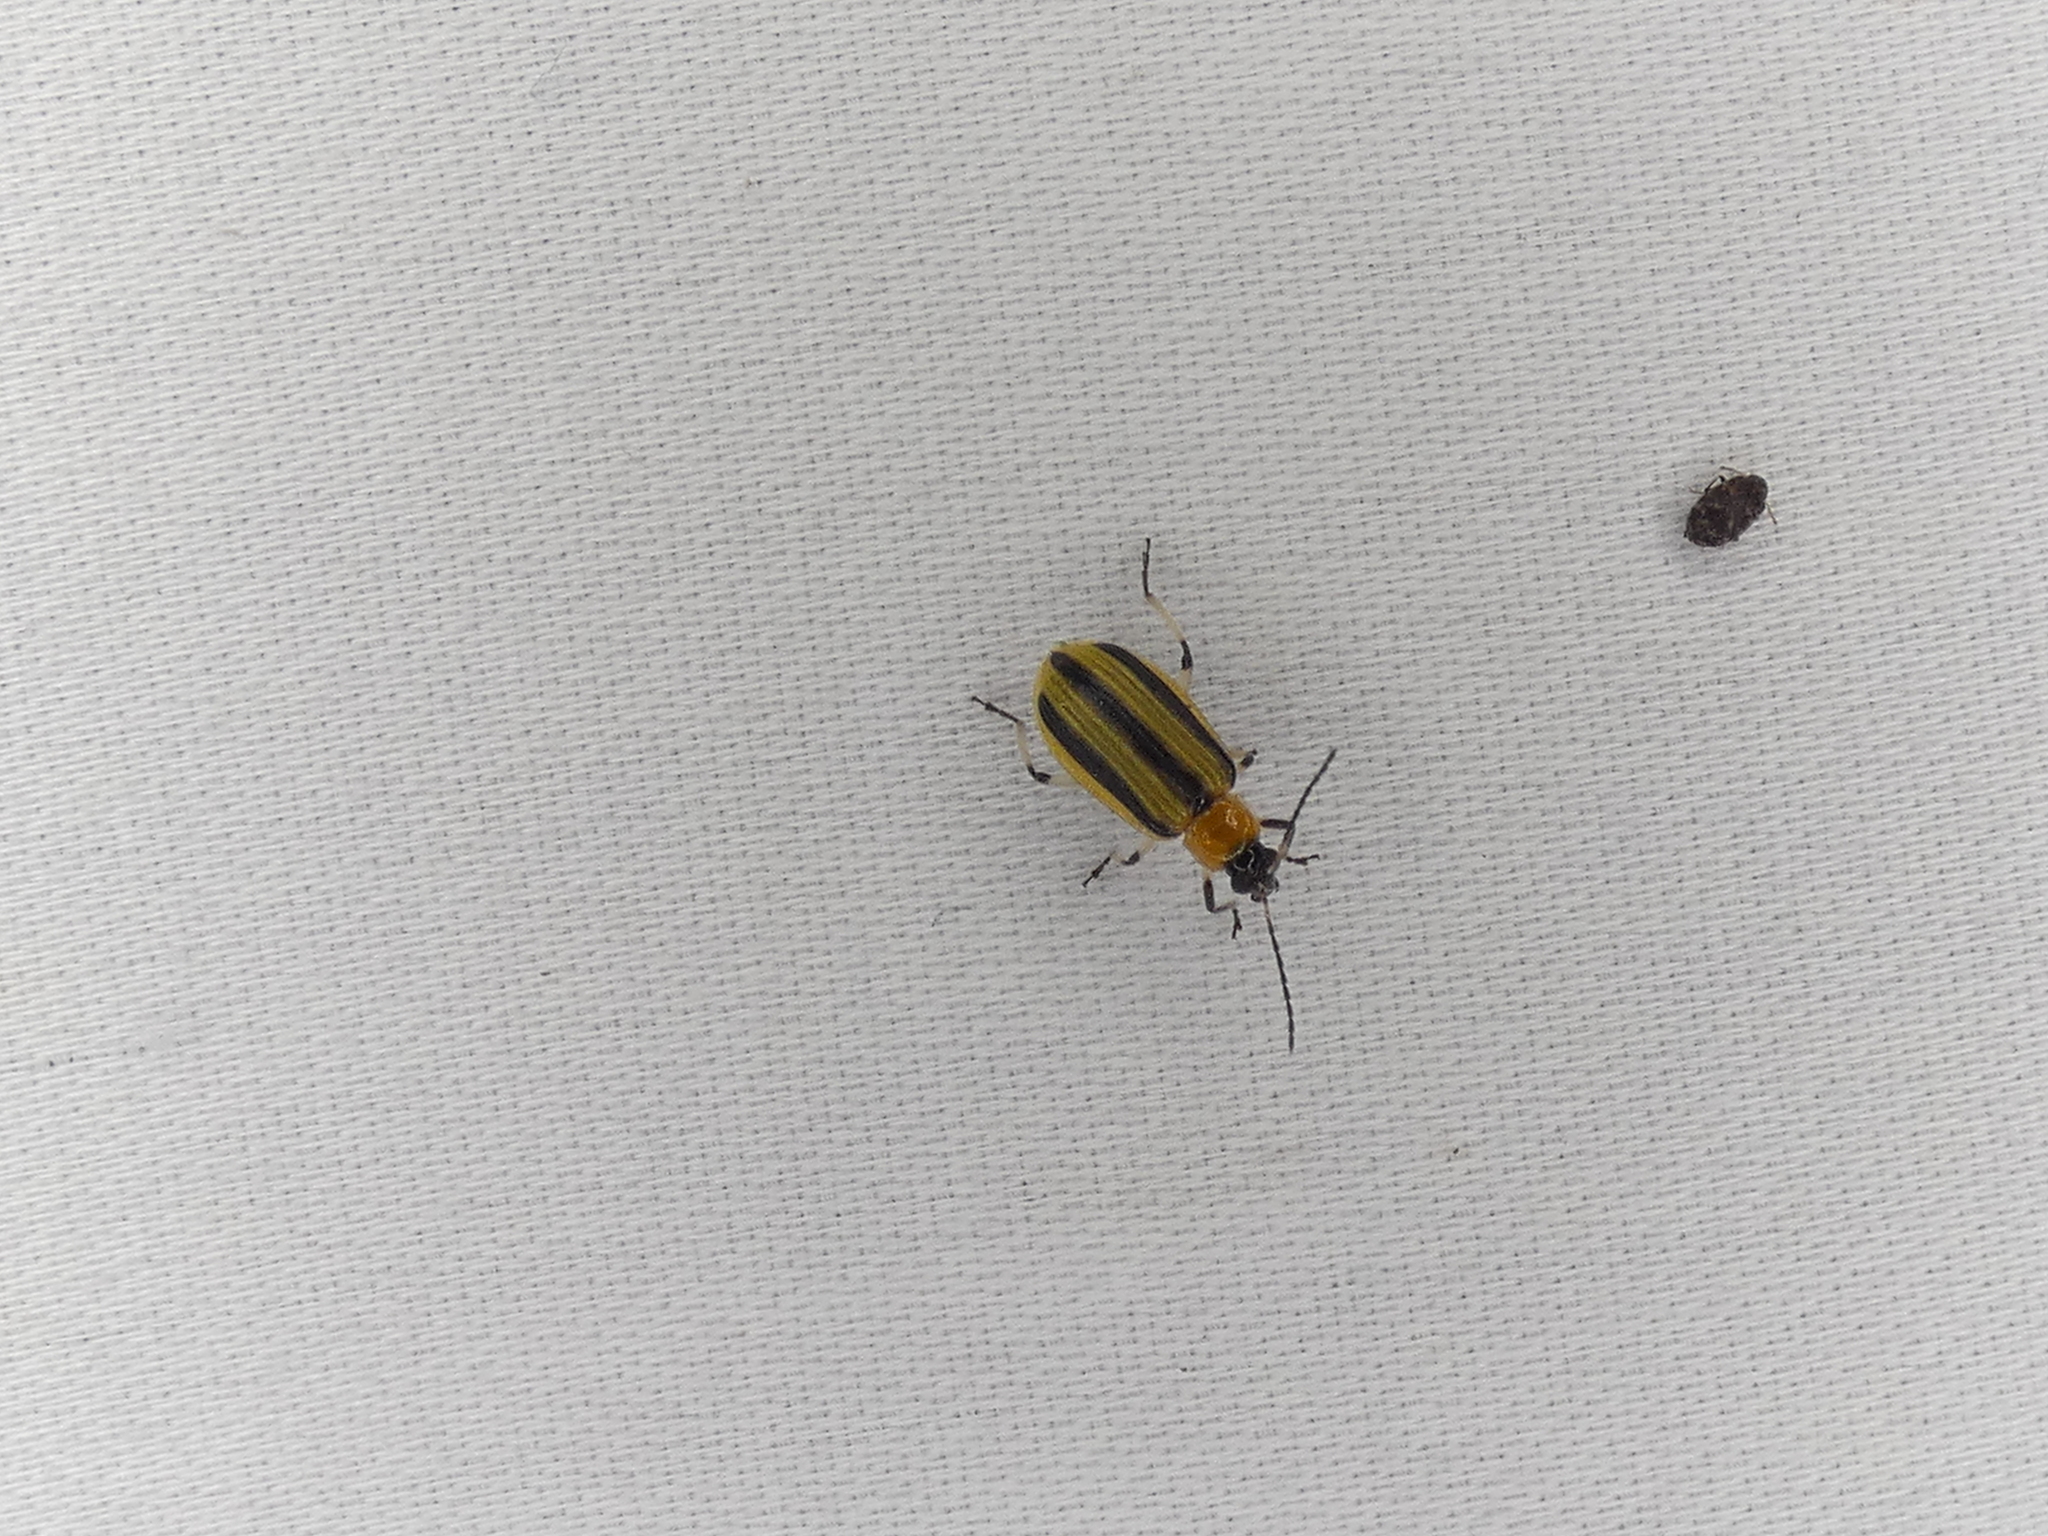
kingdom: Animalia
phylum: Arthropoda
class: Insecta
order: Coleoptera
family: Chrysomelidae
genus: Acalymma
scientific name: Acalymma vittatum
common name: Striped cucumber beetle
